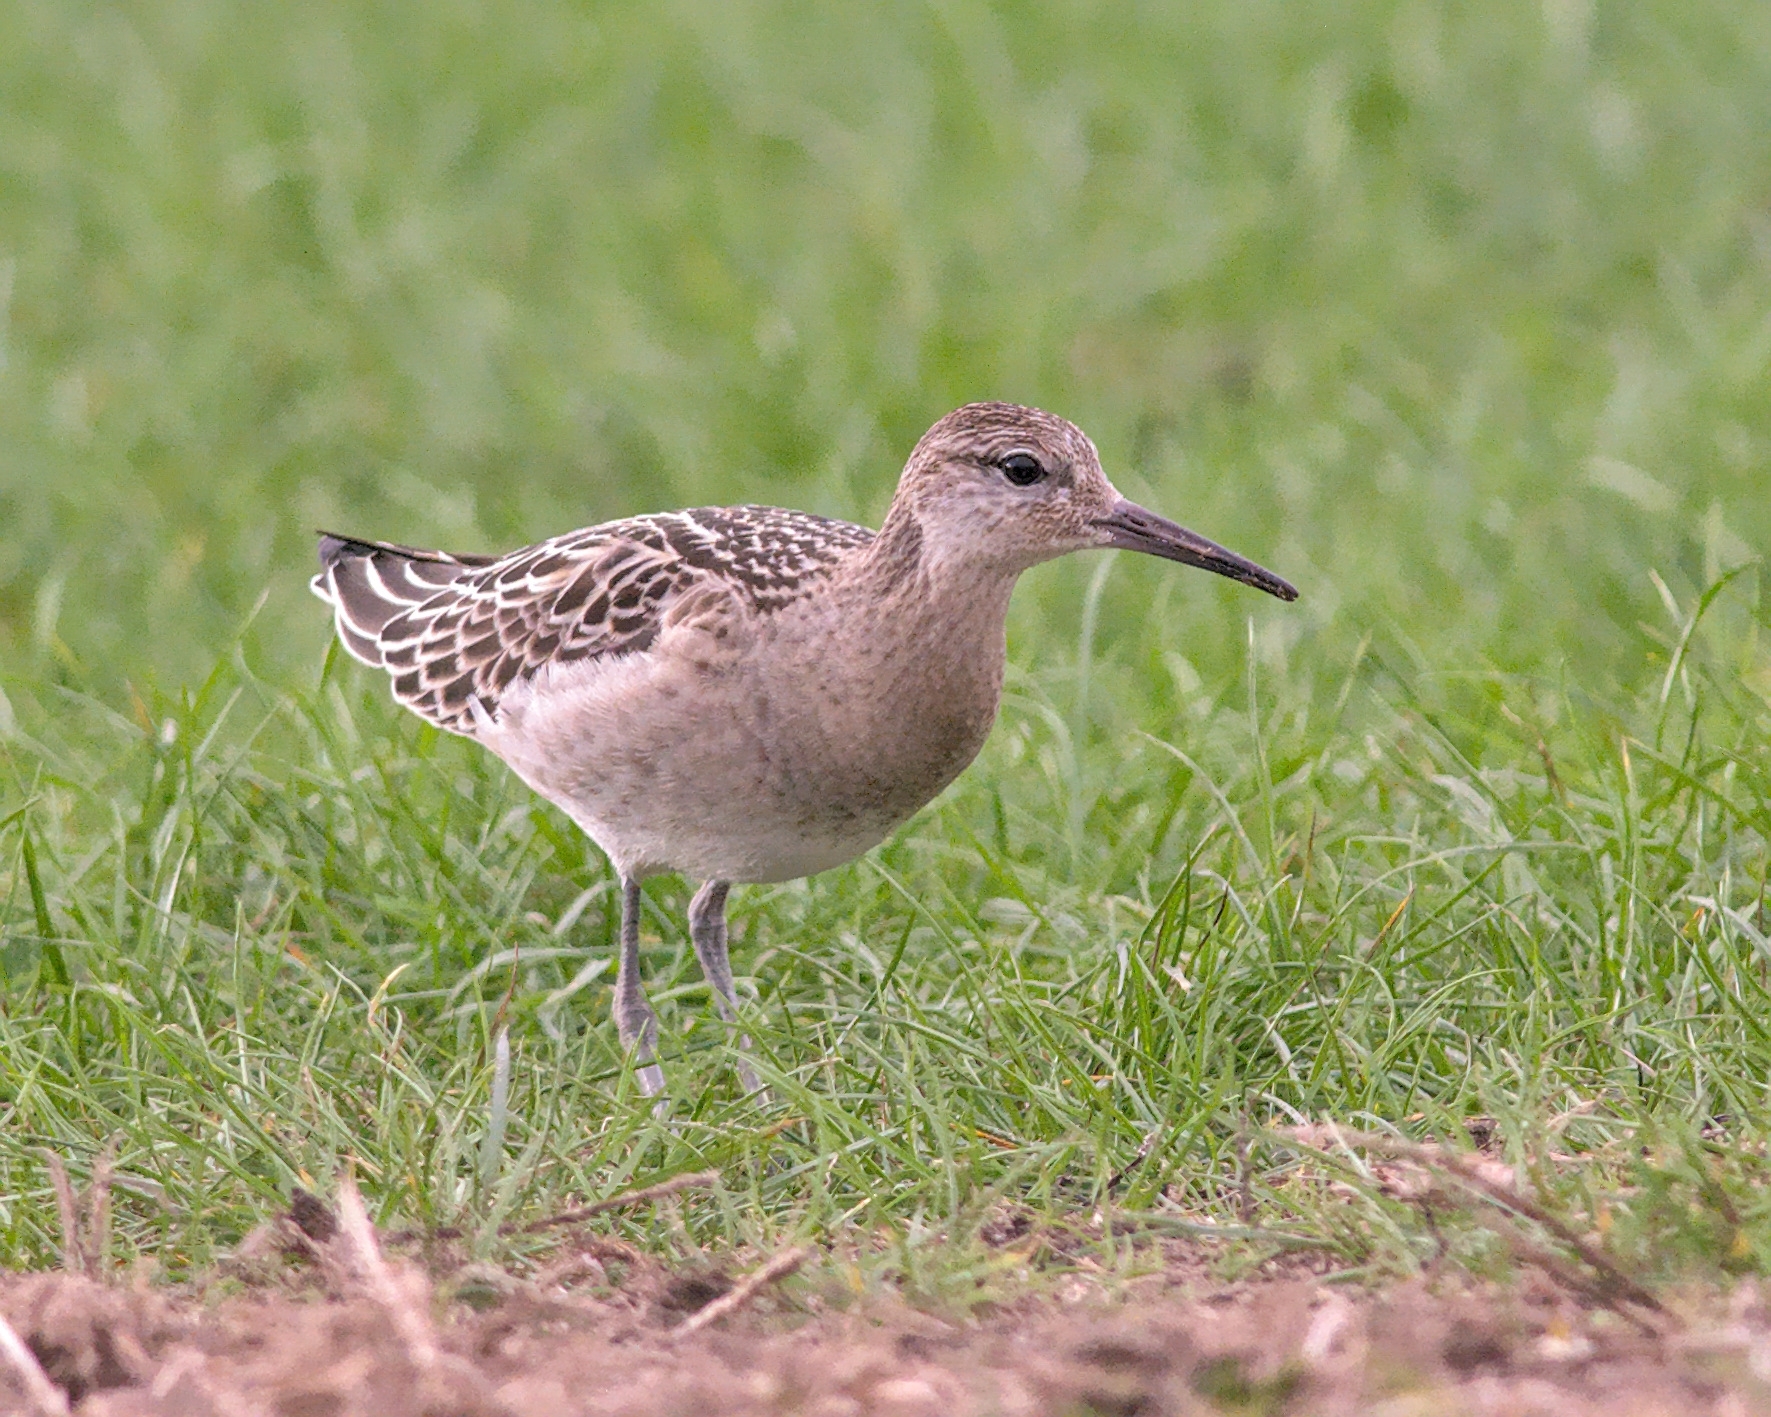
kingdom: Animalia
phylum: Chordata
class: Aves
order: Charadriiformes
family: Scolopacidae
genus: Calidris
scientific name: Calidris pugnax
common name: Ruff
